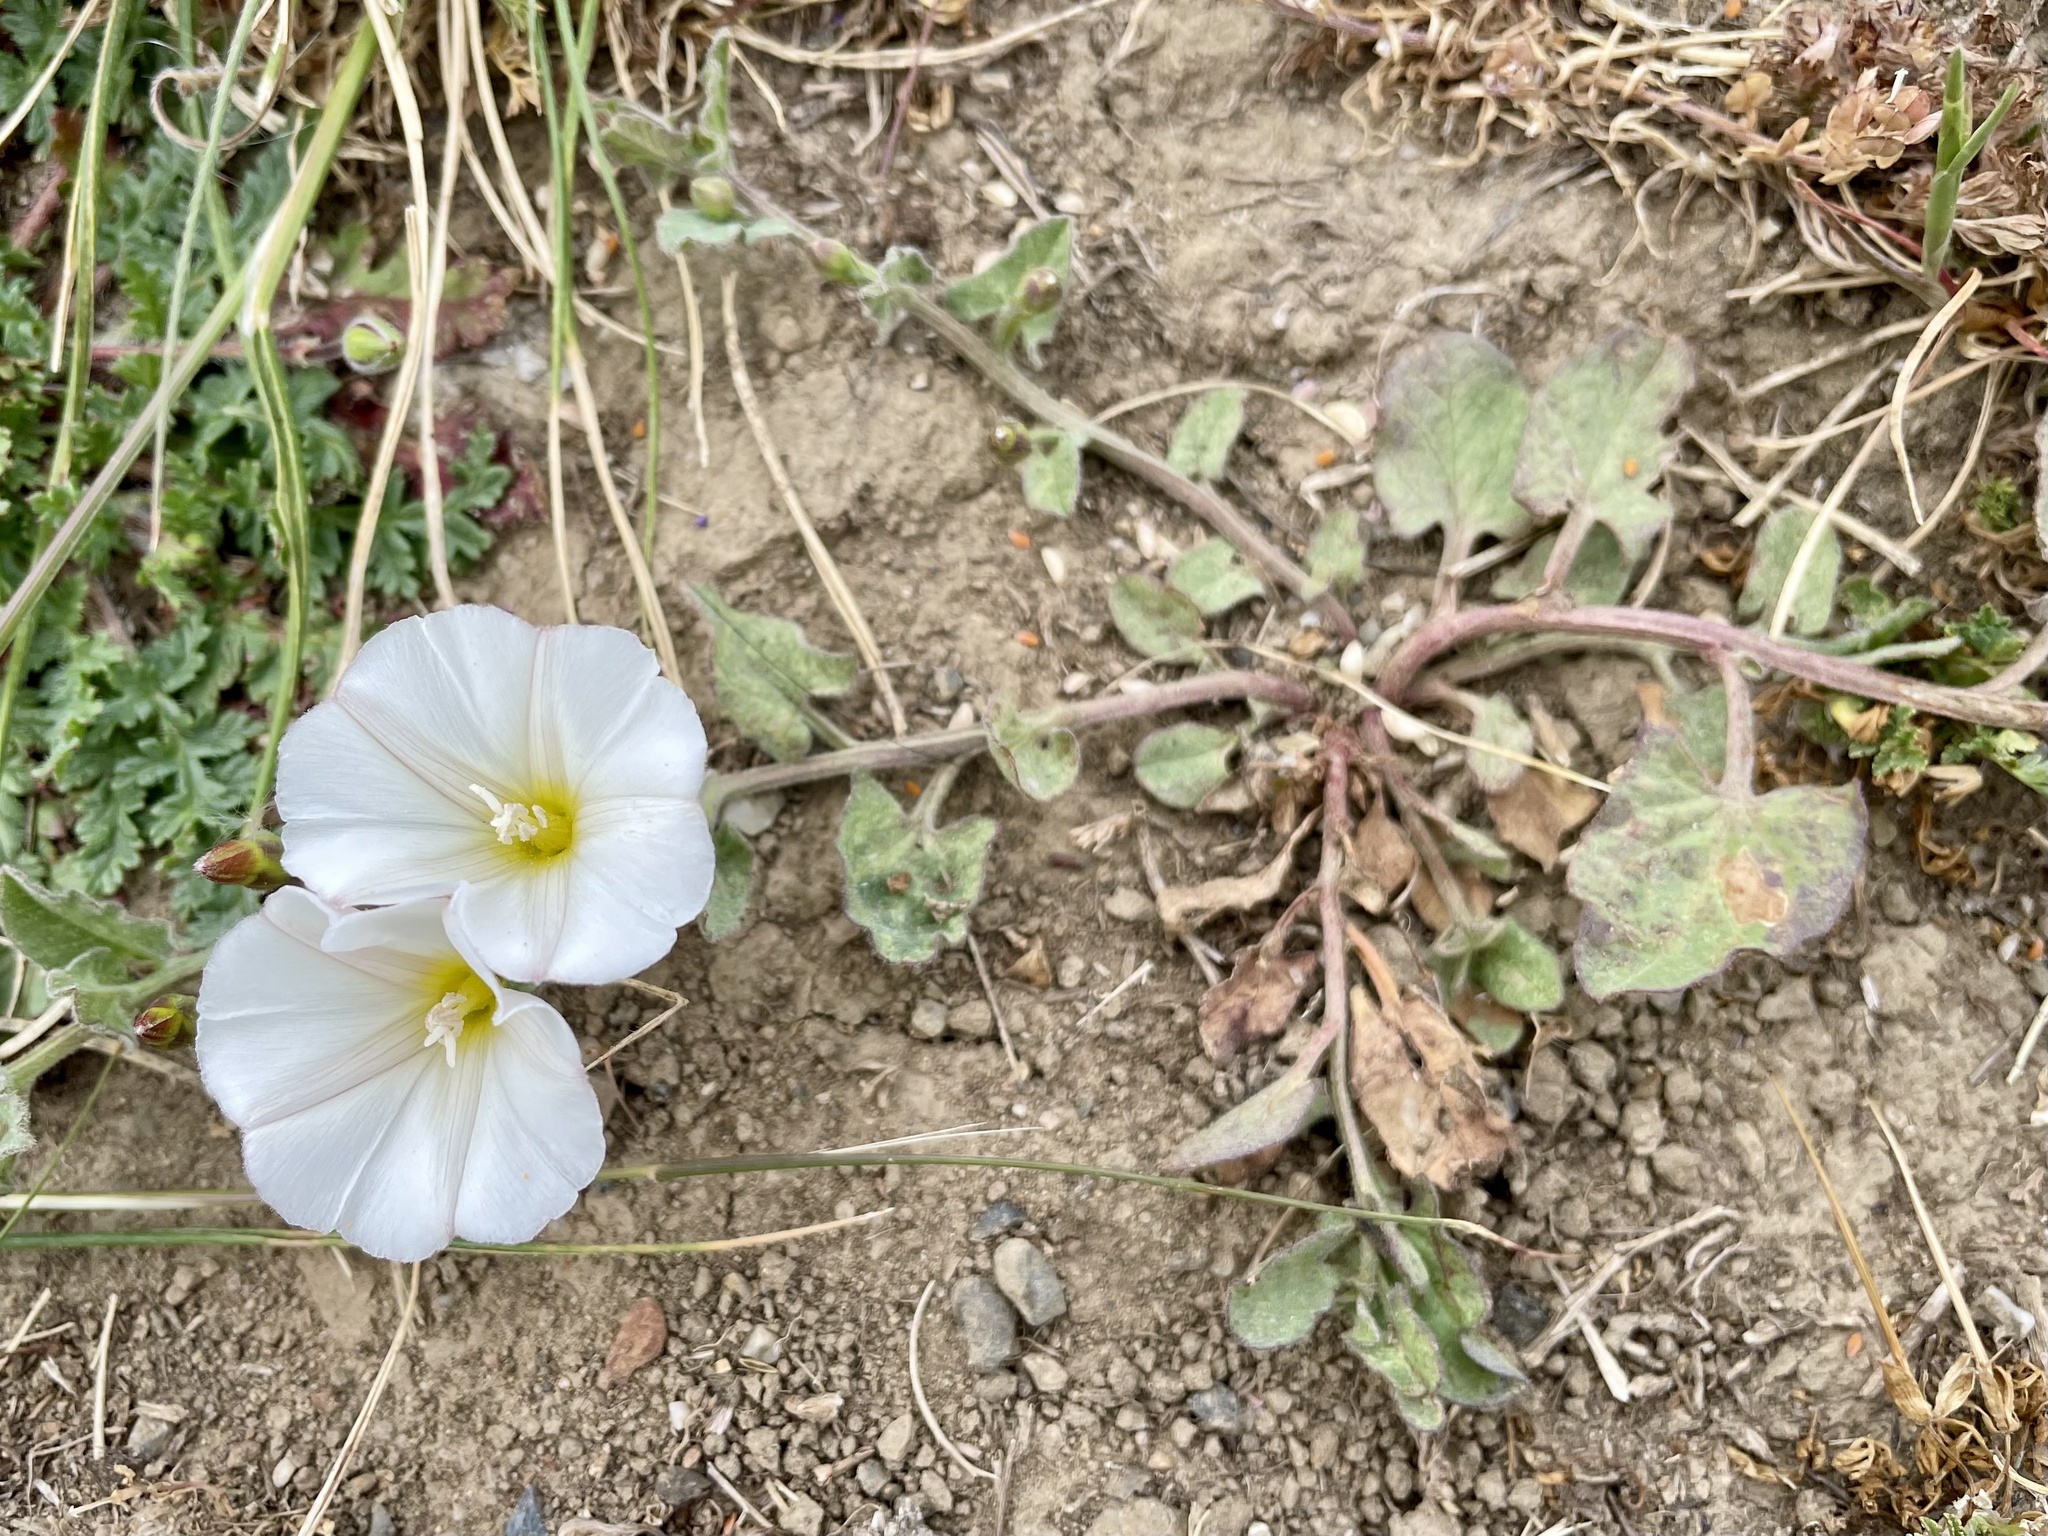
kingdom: Plantae
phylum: Tracheophyta
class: Magnoliopsida
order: Solanales
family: Convolvulaceae
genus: Convolvulus
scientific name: Convolvulus arvensis
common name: Field bindweed
